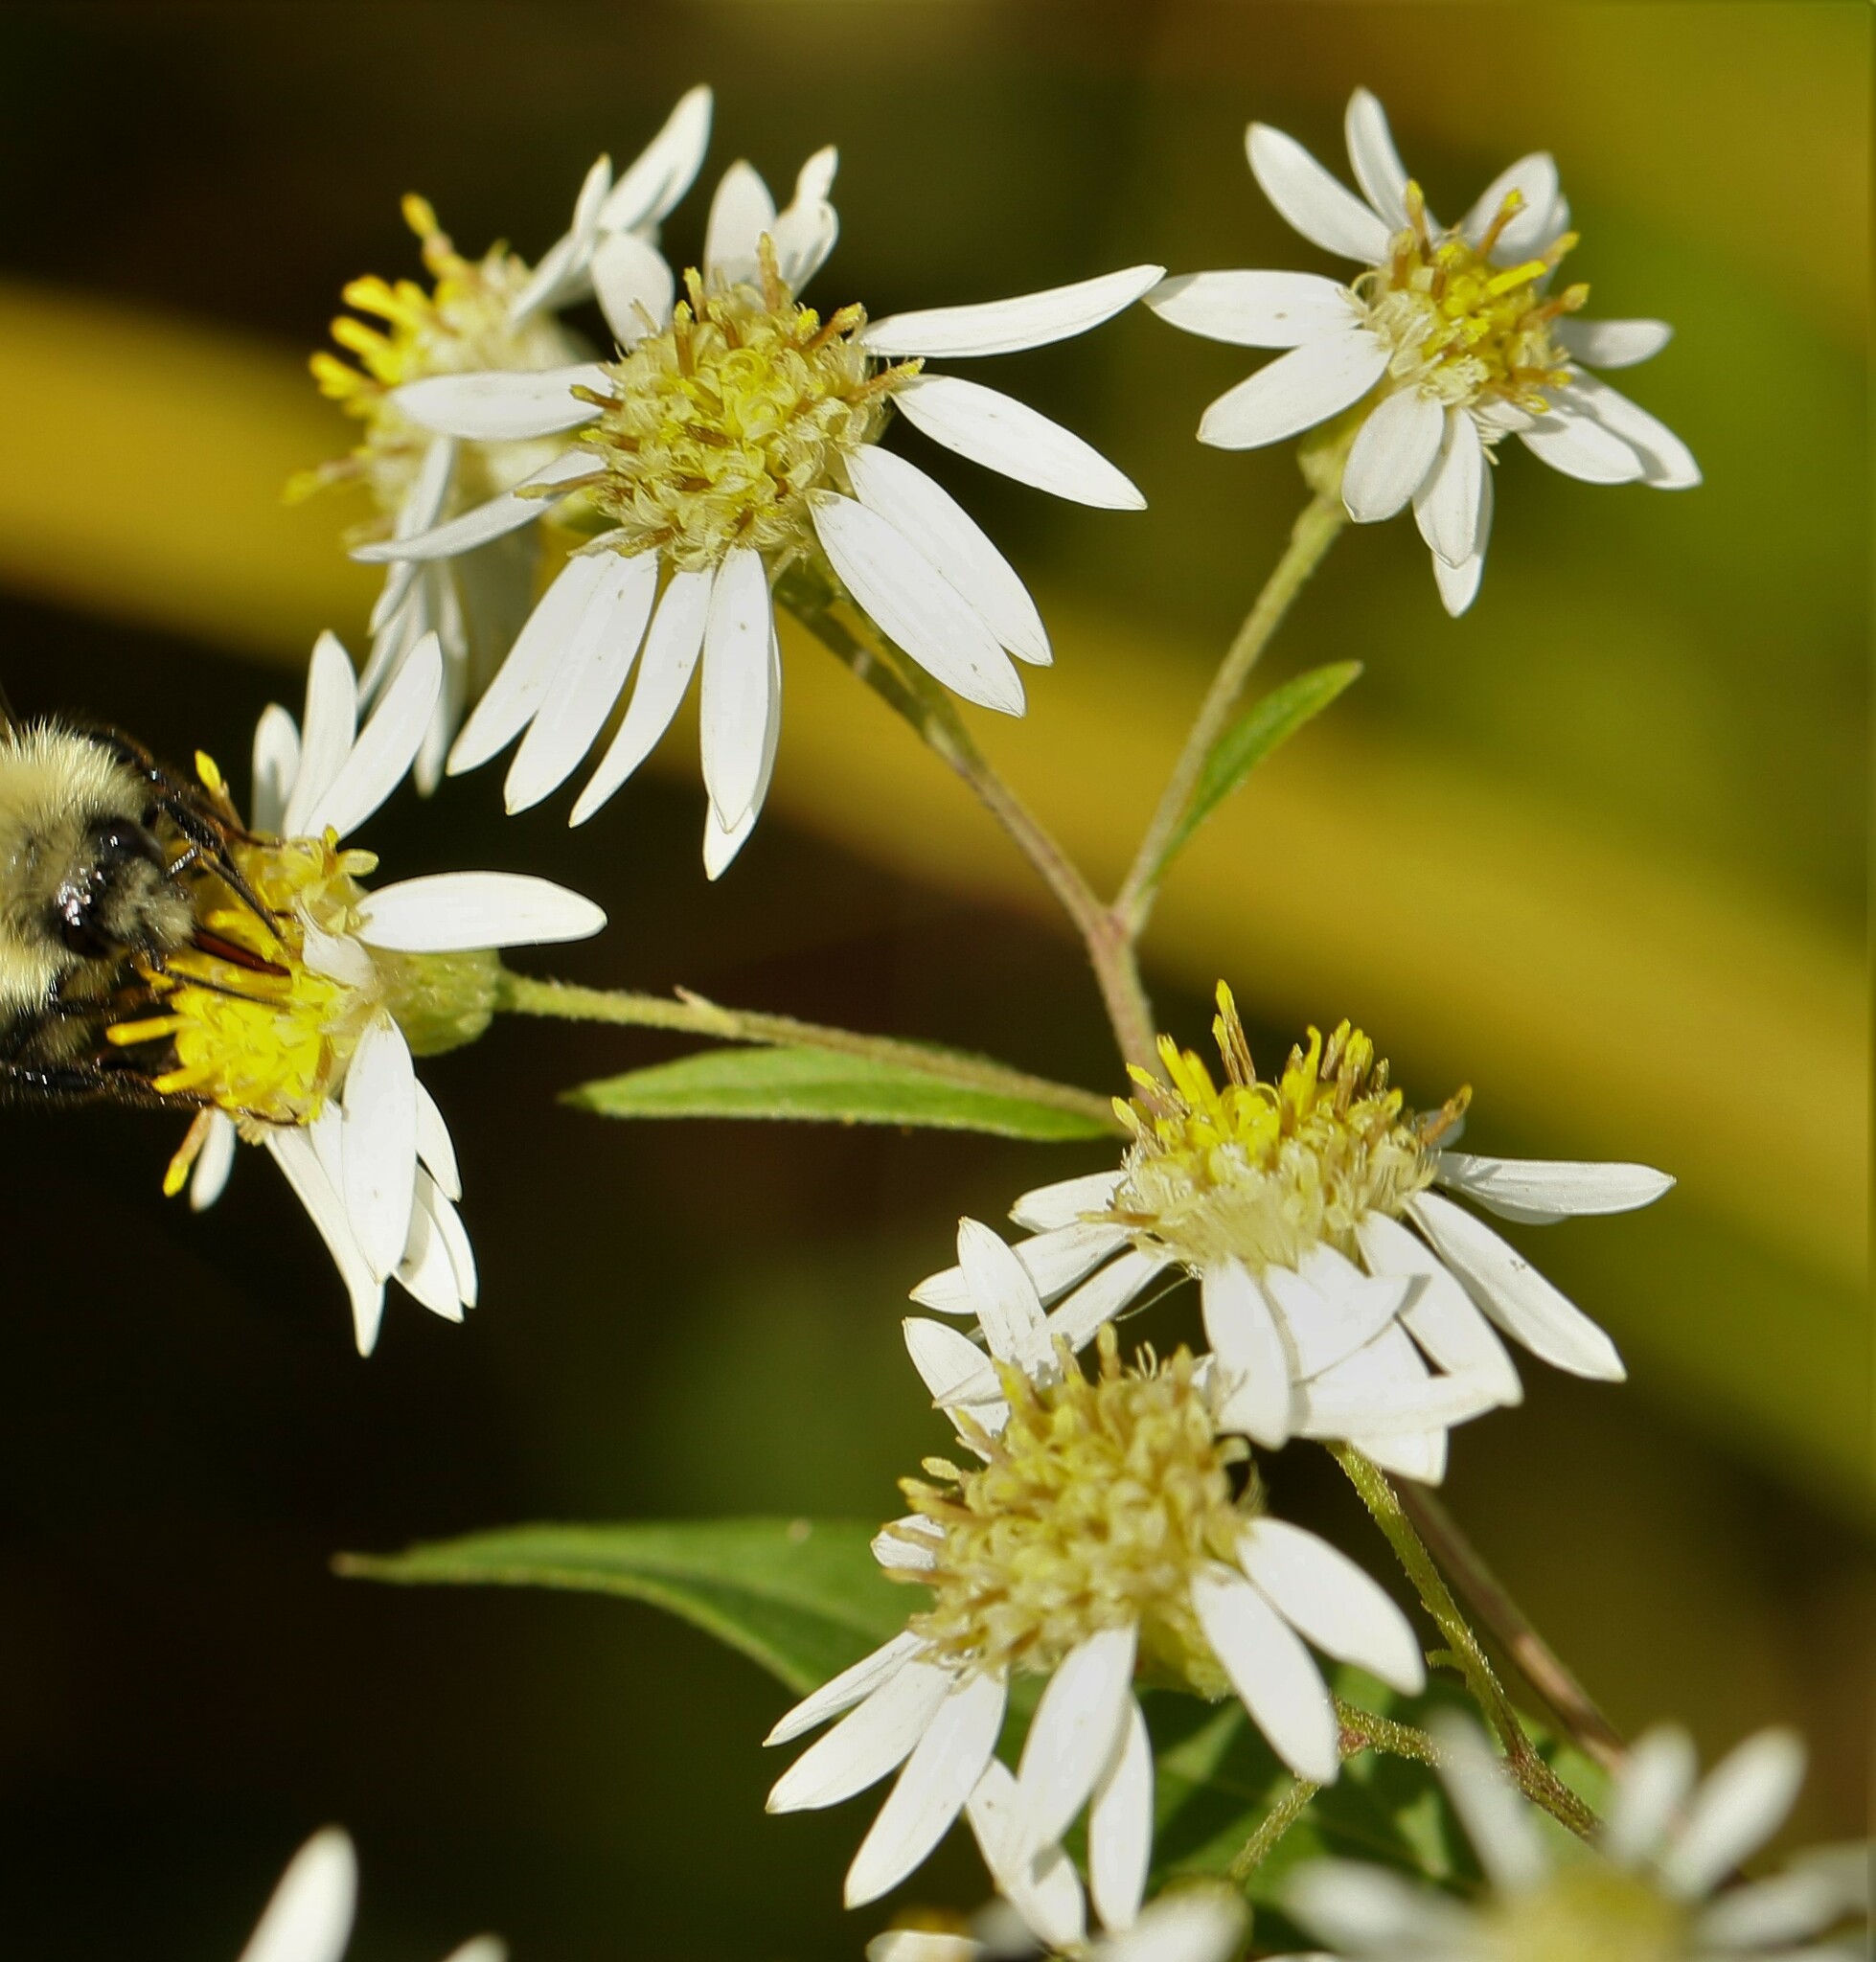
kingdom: Plantae
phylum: Tracheophyta
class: Magnoliopsida
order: Asterales
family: Asteraceae
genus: Doellingeria
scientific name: Doellingeria umbellata
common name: Flat-top white aster
